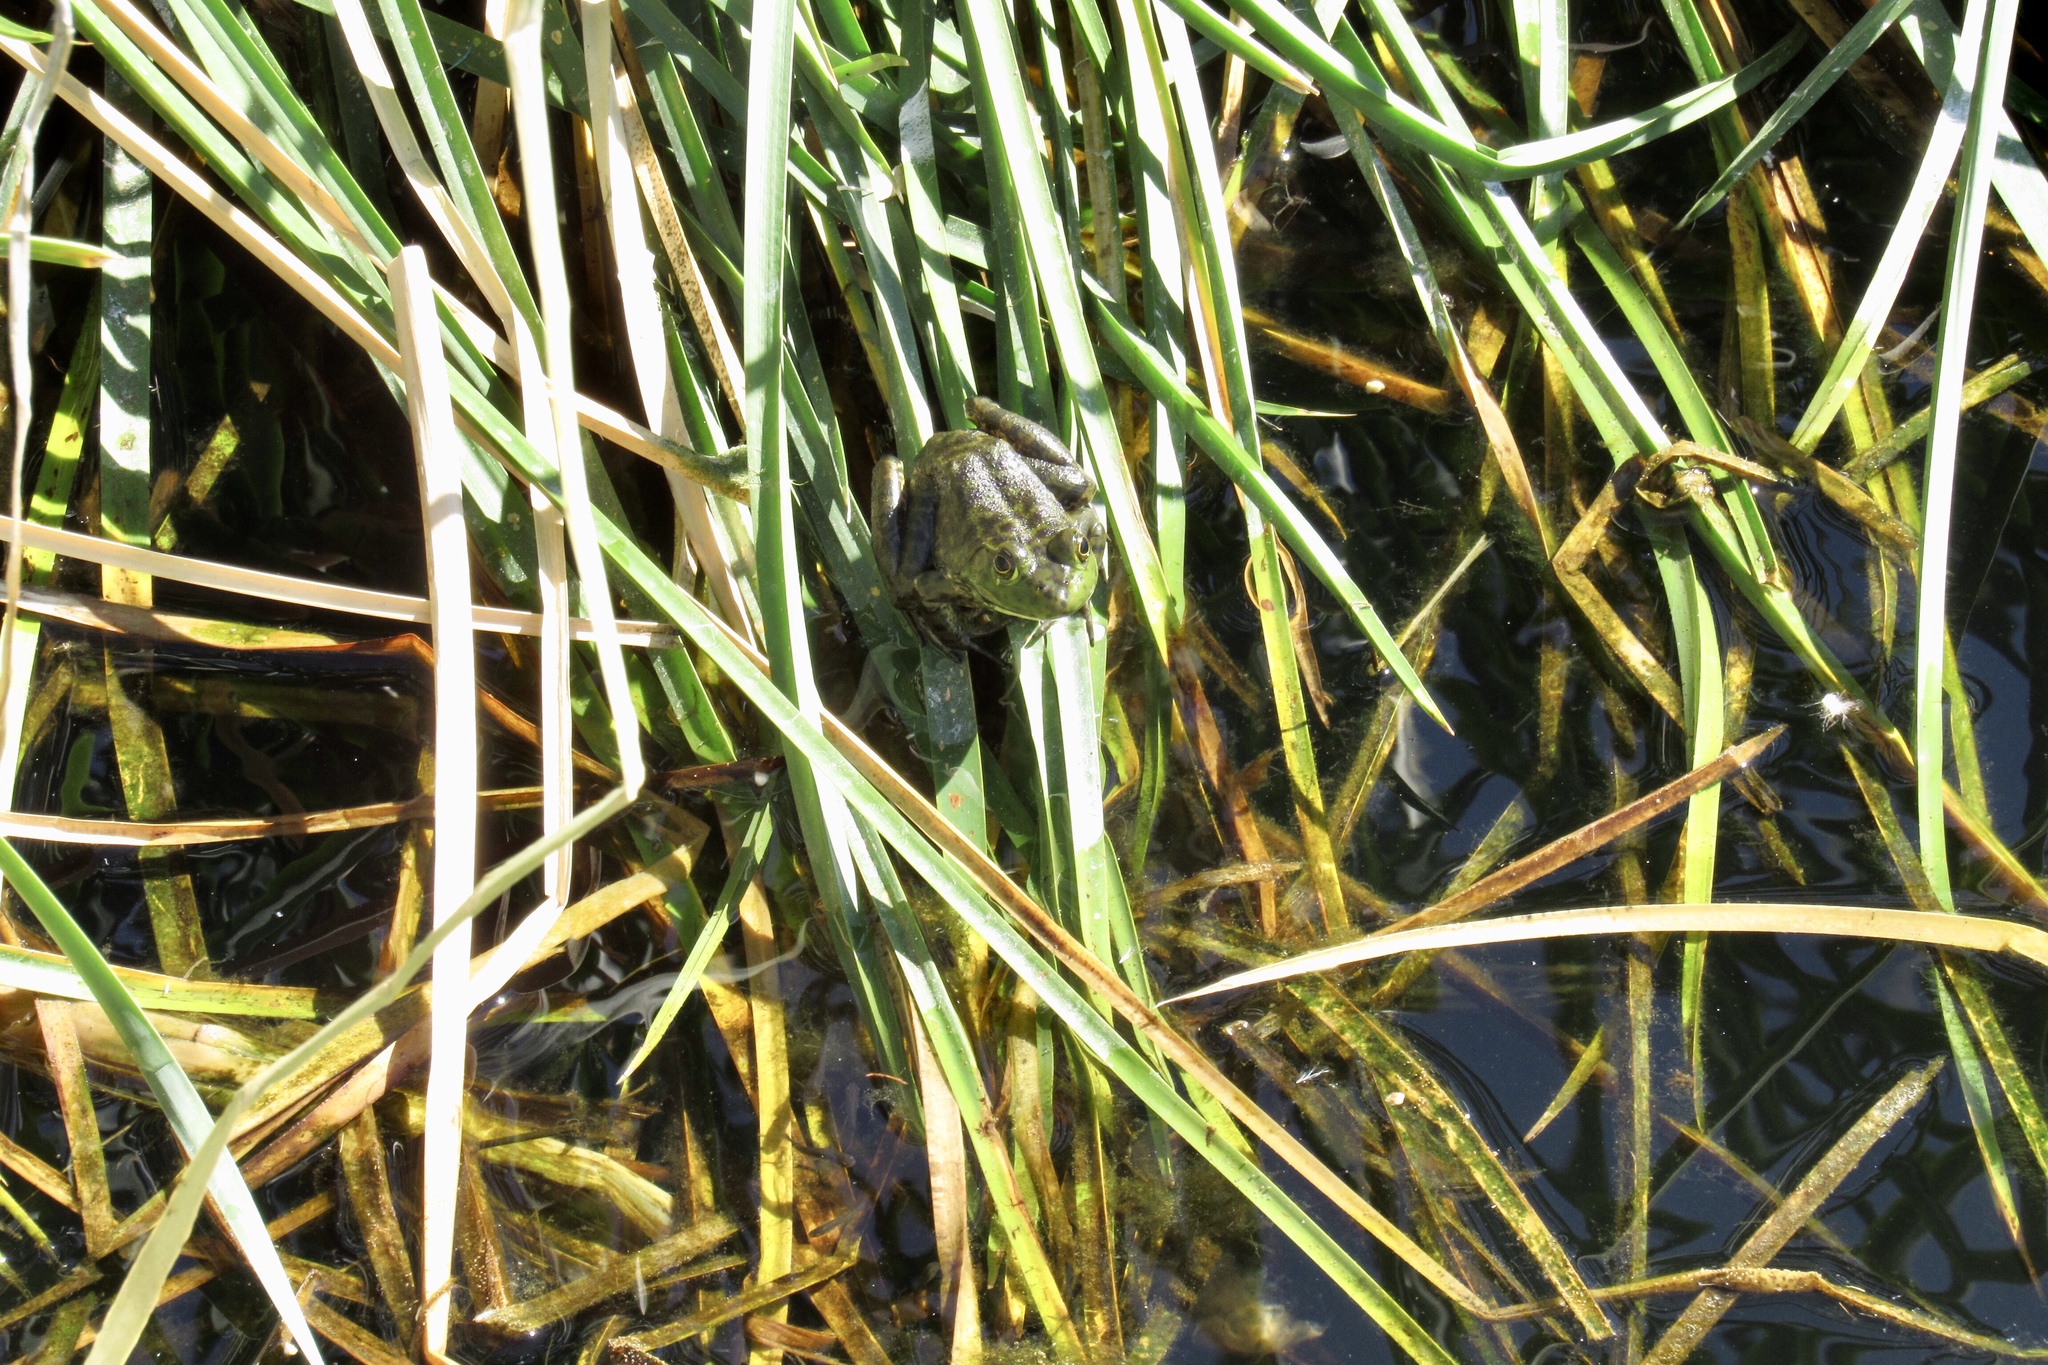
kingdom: Animalia
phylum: Chordata
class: Amphibia
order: Anura
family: Ranidae
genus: Lithobates
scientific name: Lithobates catesbeianus
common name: American bullfrog
